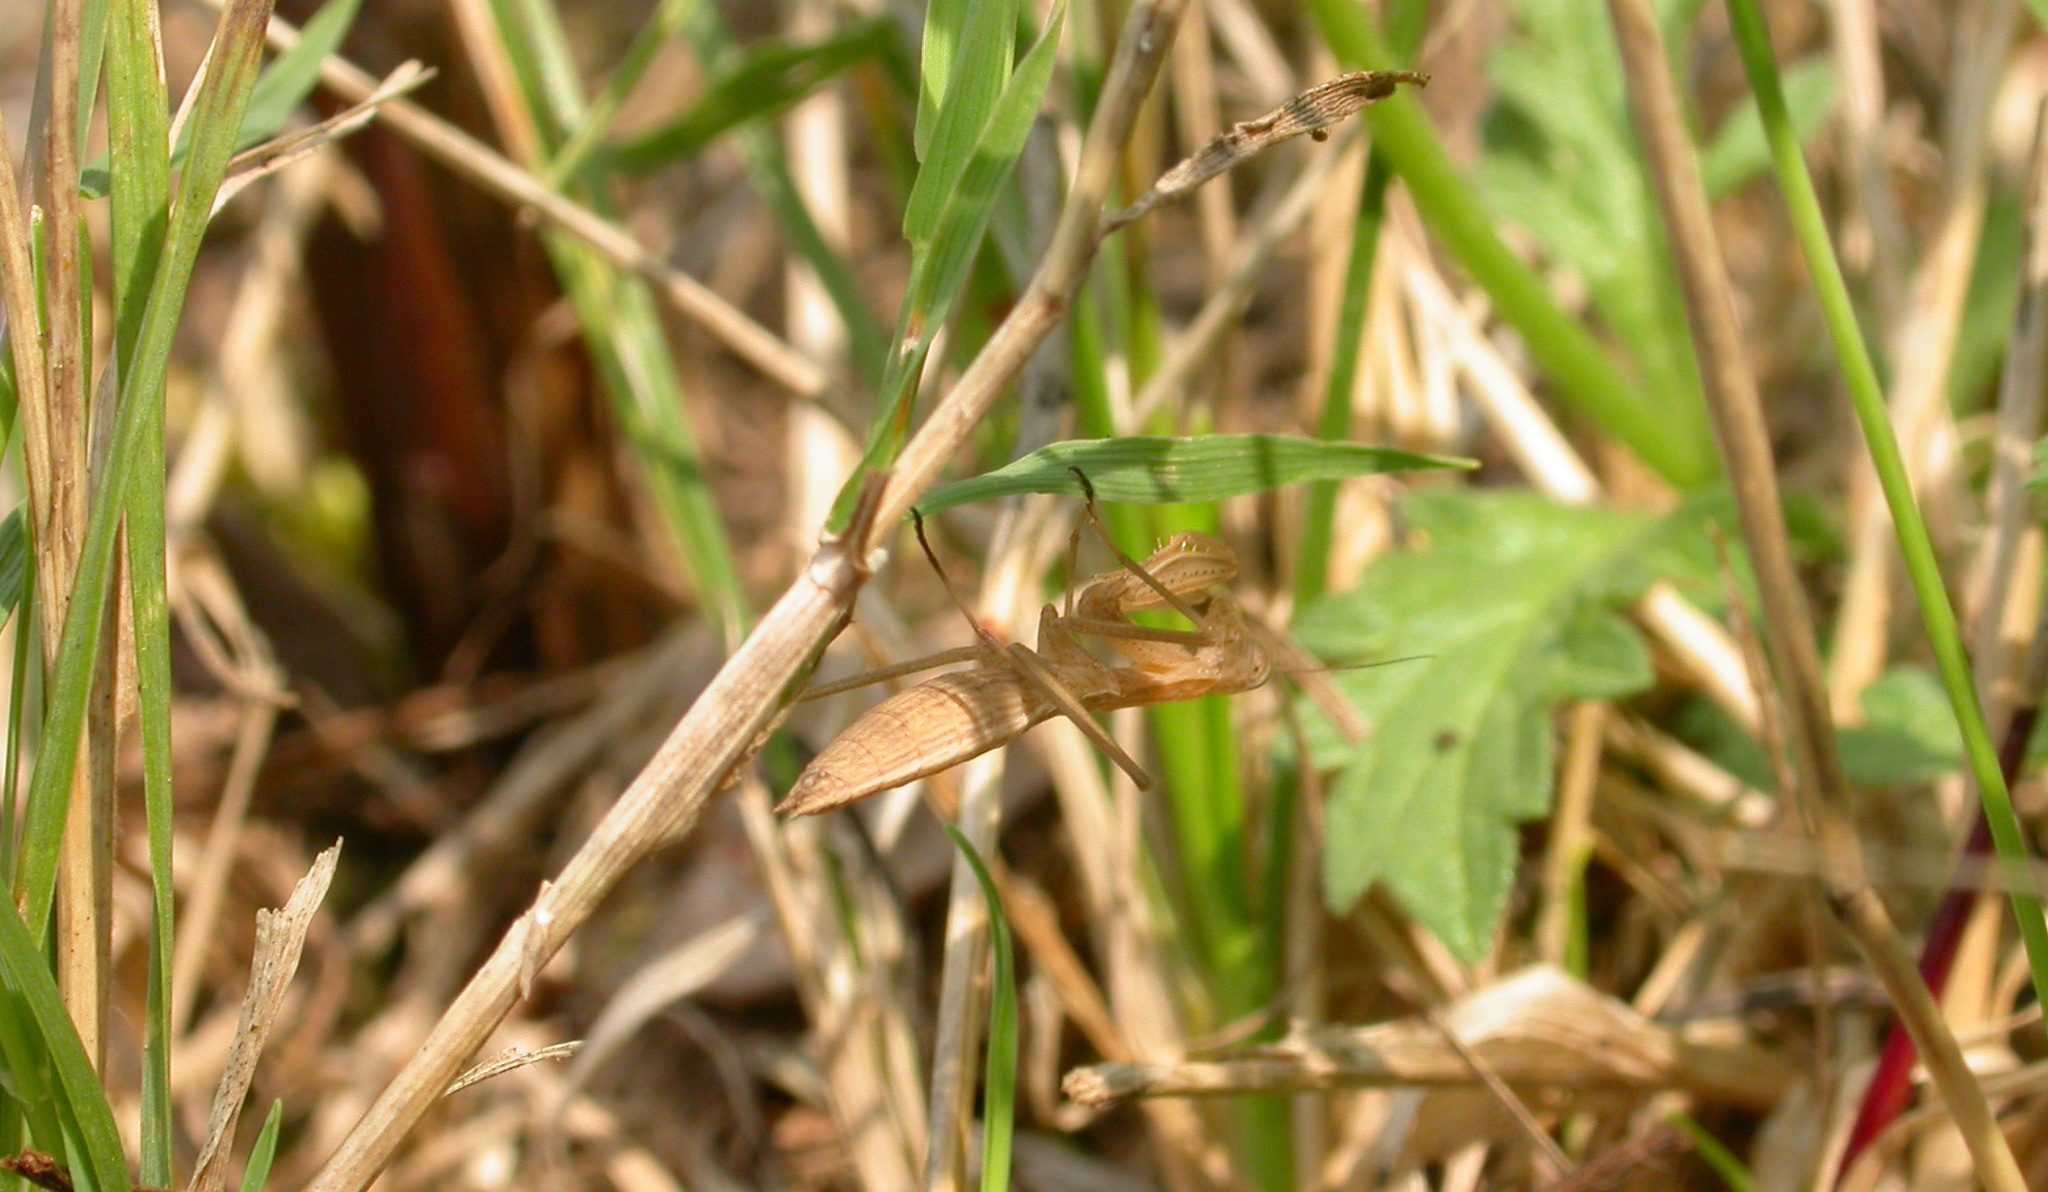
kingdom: Animalia
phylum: Arthropoda
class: Insecta
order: Mantodea
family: Mantidae
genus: Mantis
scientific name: Mantis religiosa
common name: Praying mantis
